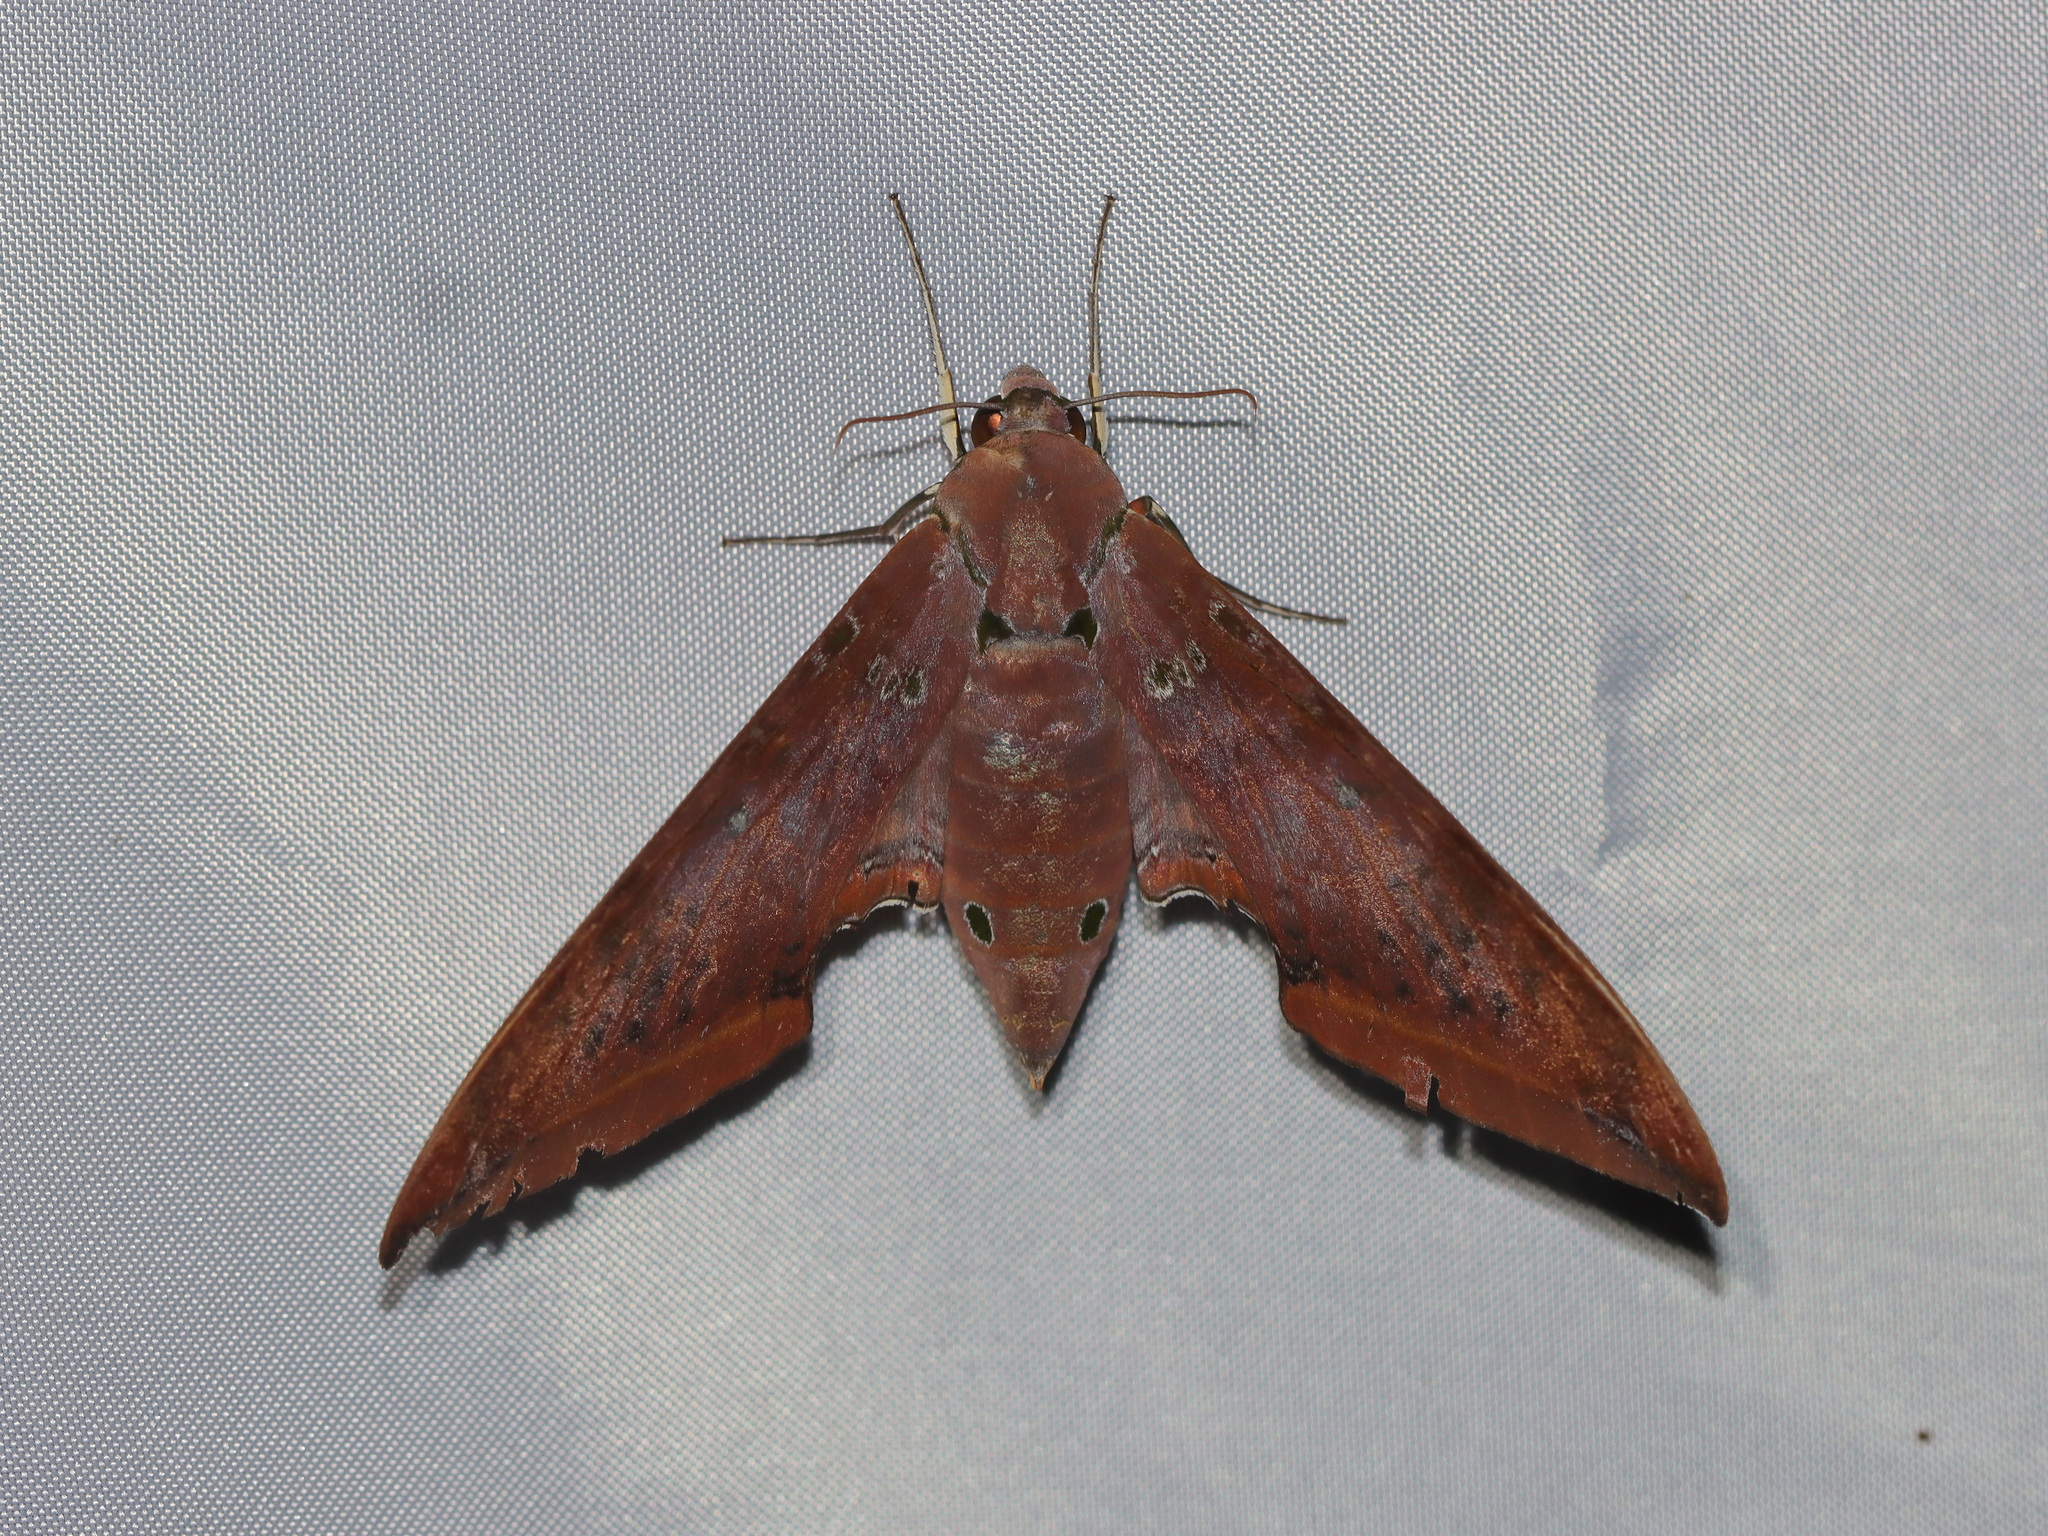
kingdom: Animalia
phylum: Arthropoda
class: Insecta
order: Lepidoptera
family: Sphingidae
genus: Ambulyx
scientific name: Ambulyx moorei
